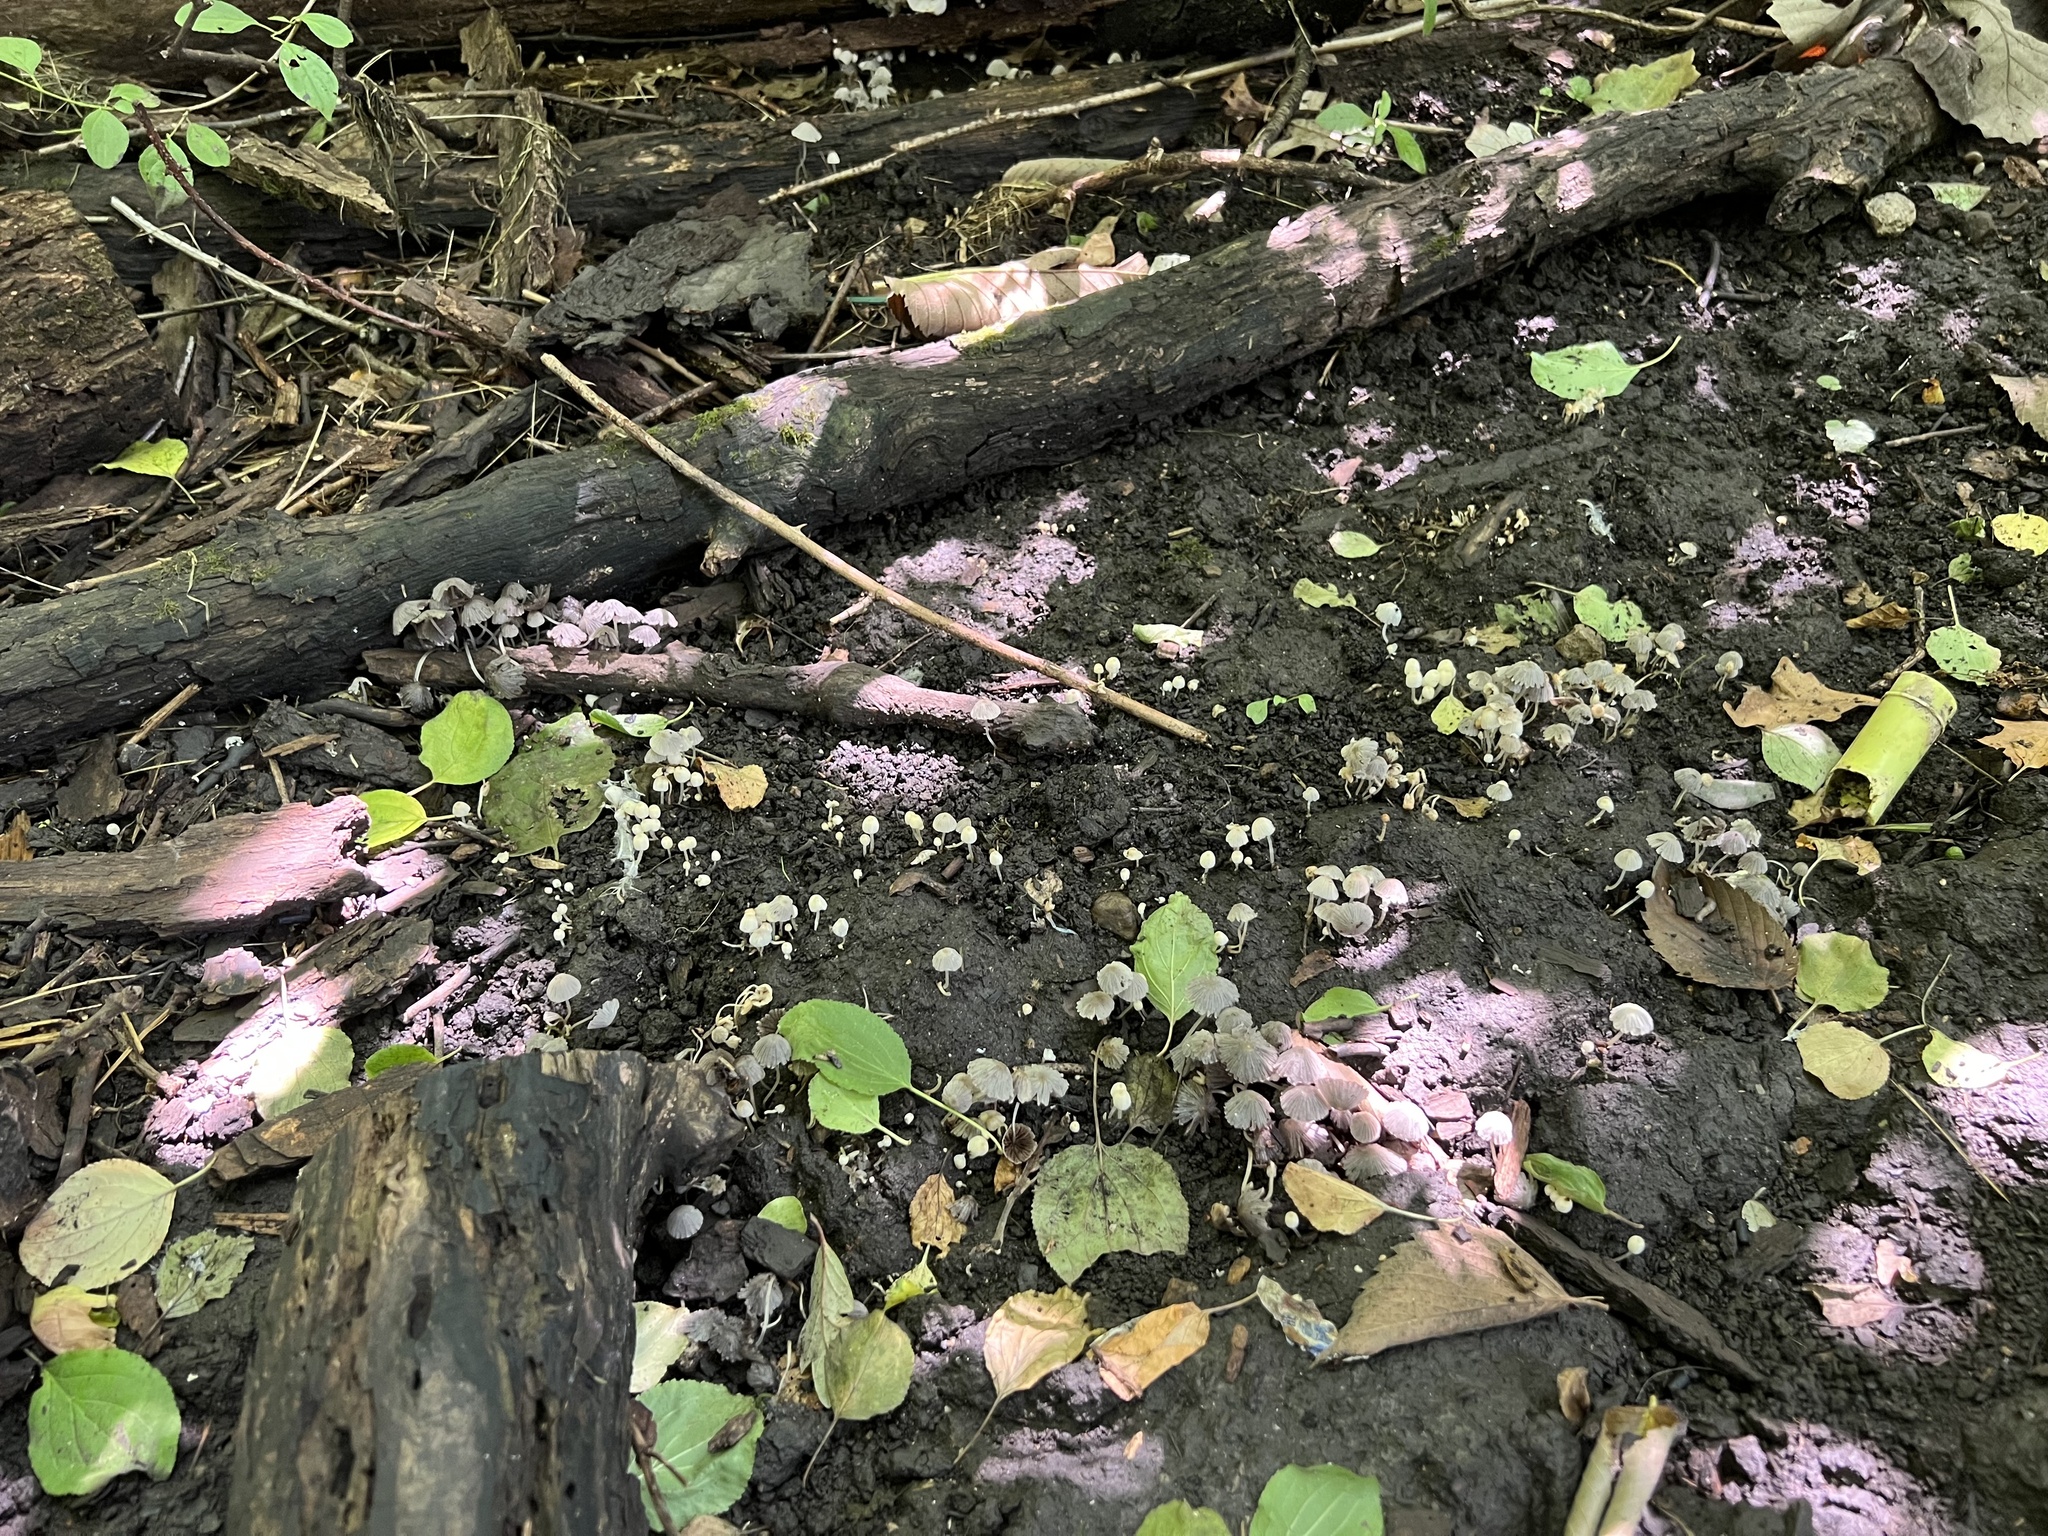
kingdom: Fungi
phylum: Basidiomycota
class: Agaricomycetes
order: Agaricales
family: Psathyrellaceae
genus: Coprinellus
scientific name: Coprinellus disseminatus
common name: Fairies' bonnets
